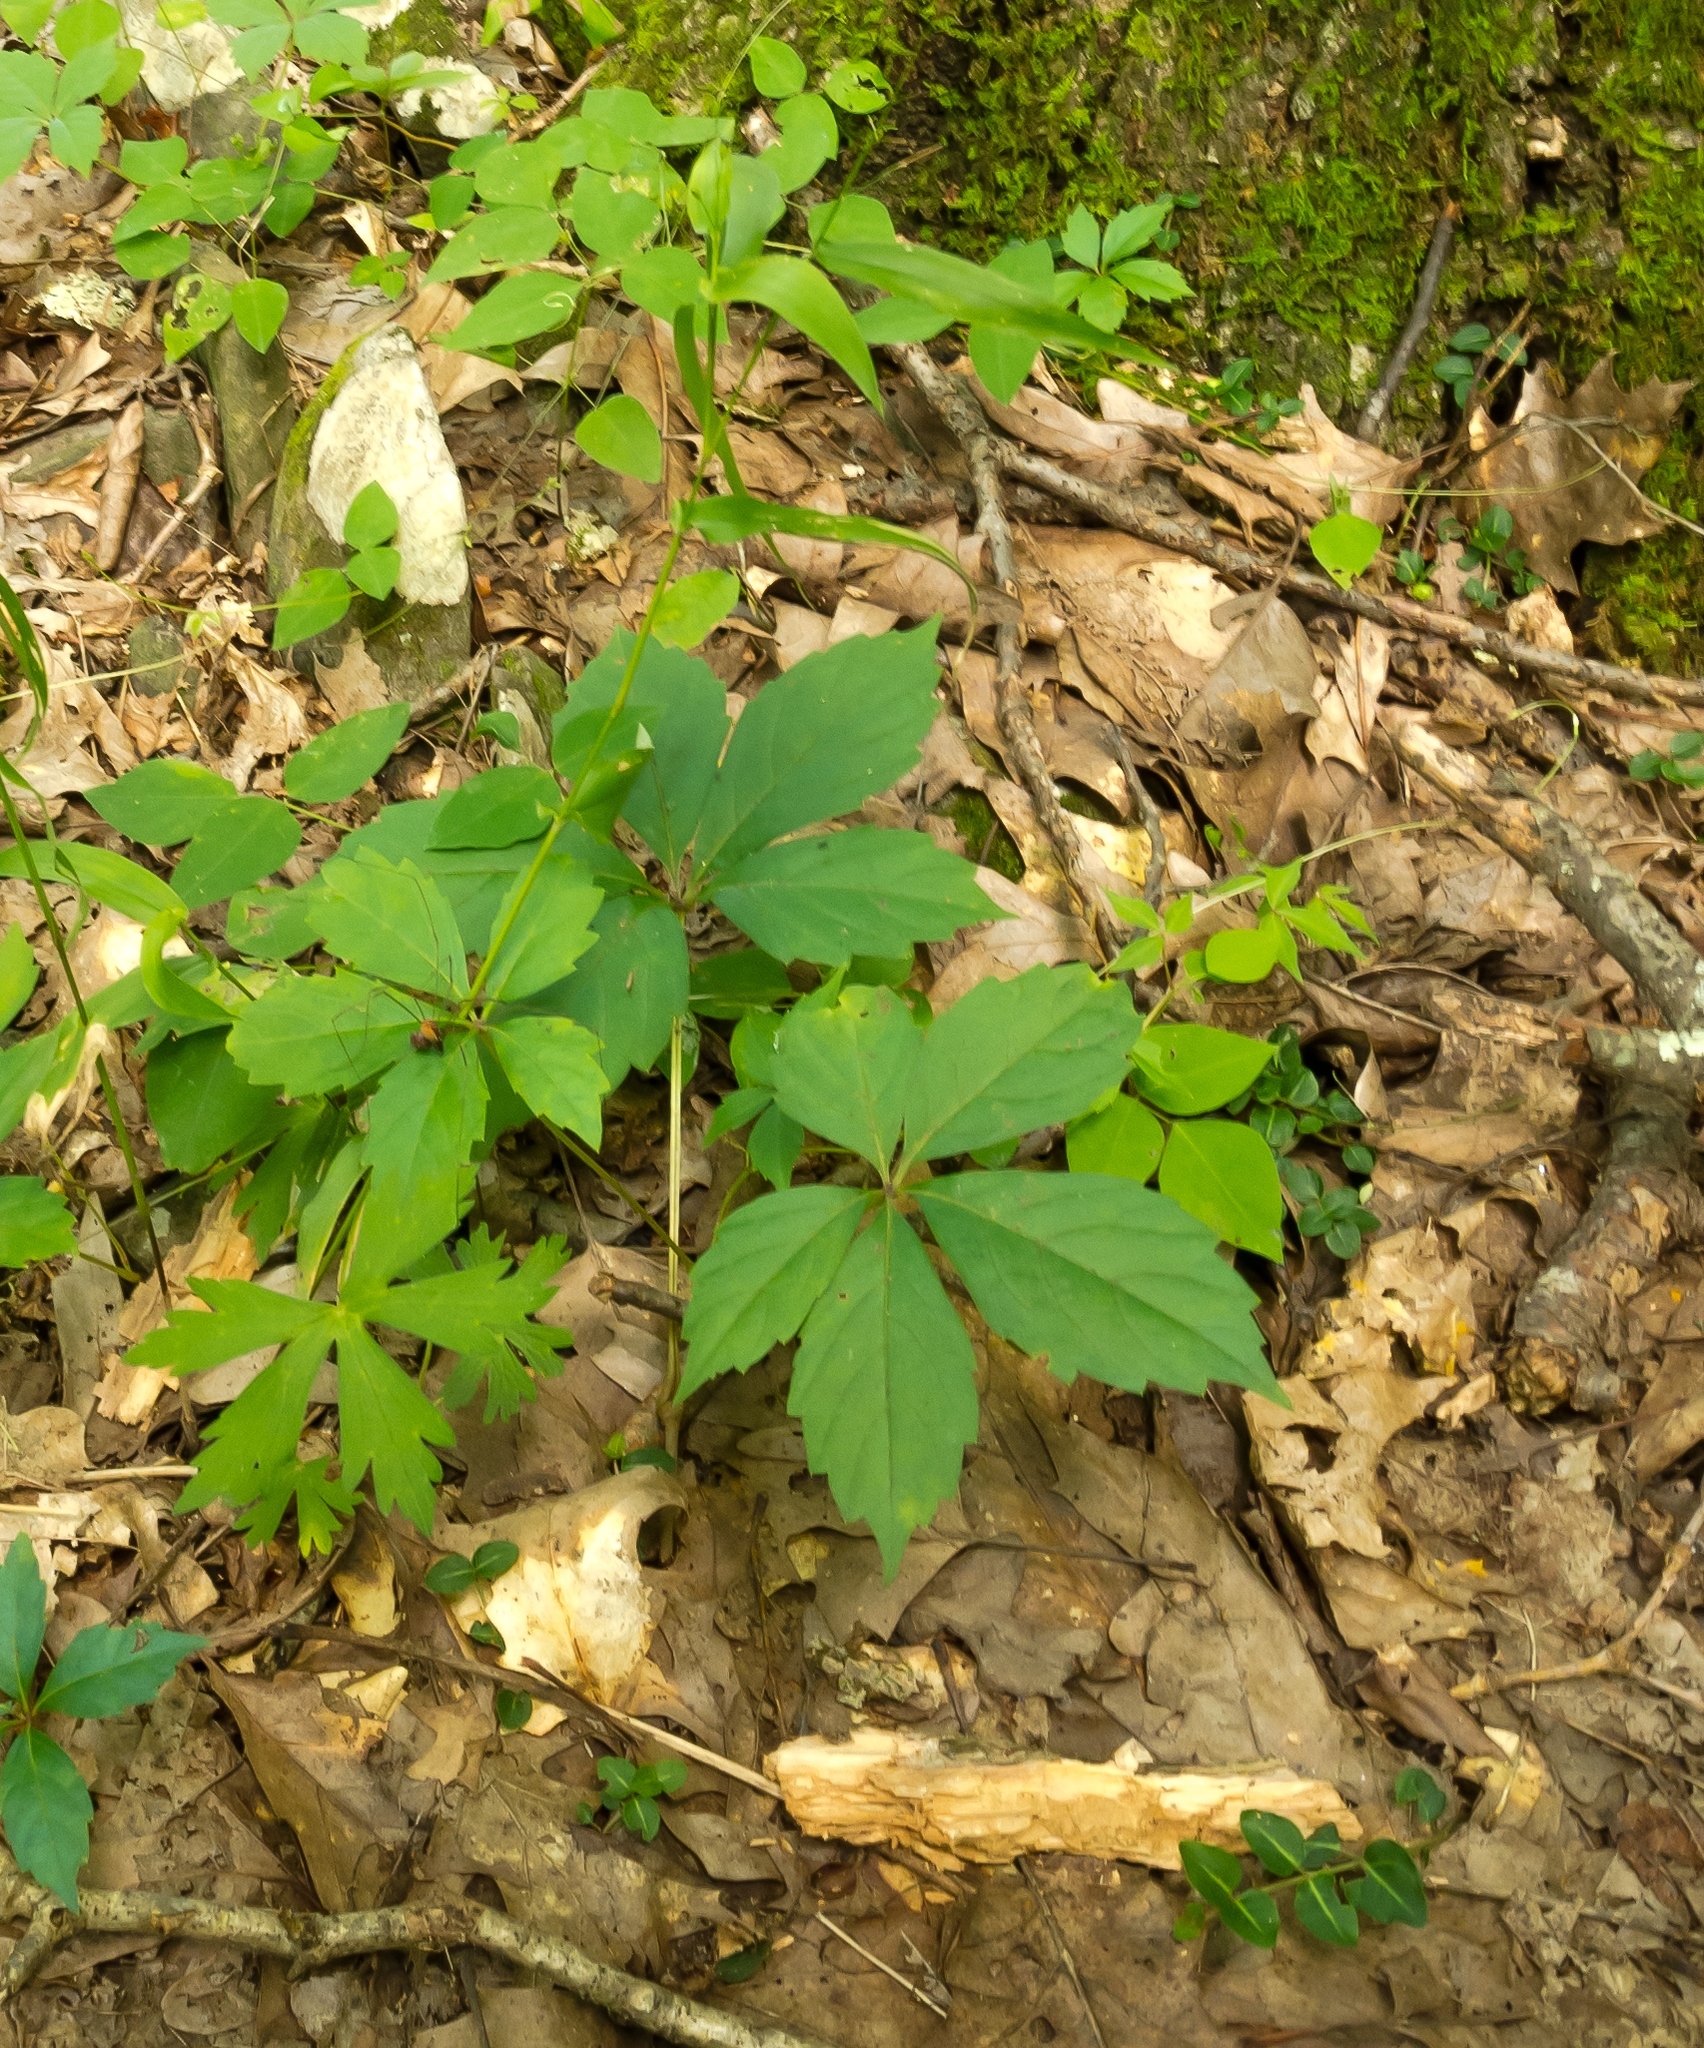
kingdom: Plantae
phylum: Tracheophyta
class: Magnoliopsida
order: Gentianales
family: Rubiaceae
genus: Mitchella
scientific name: Mitchella repens
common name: Partridge-berry
